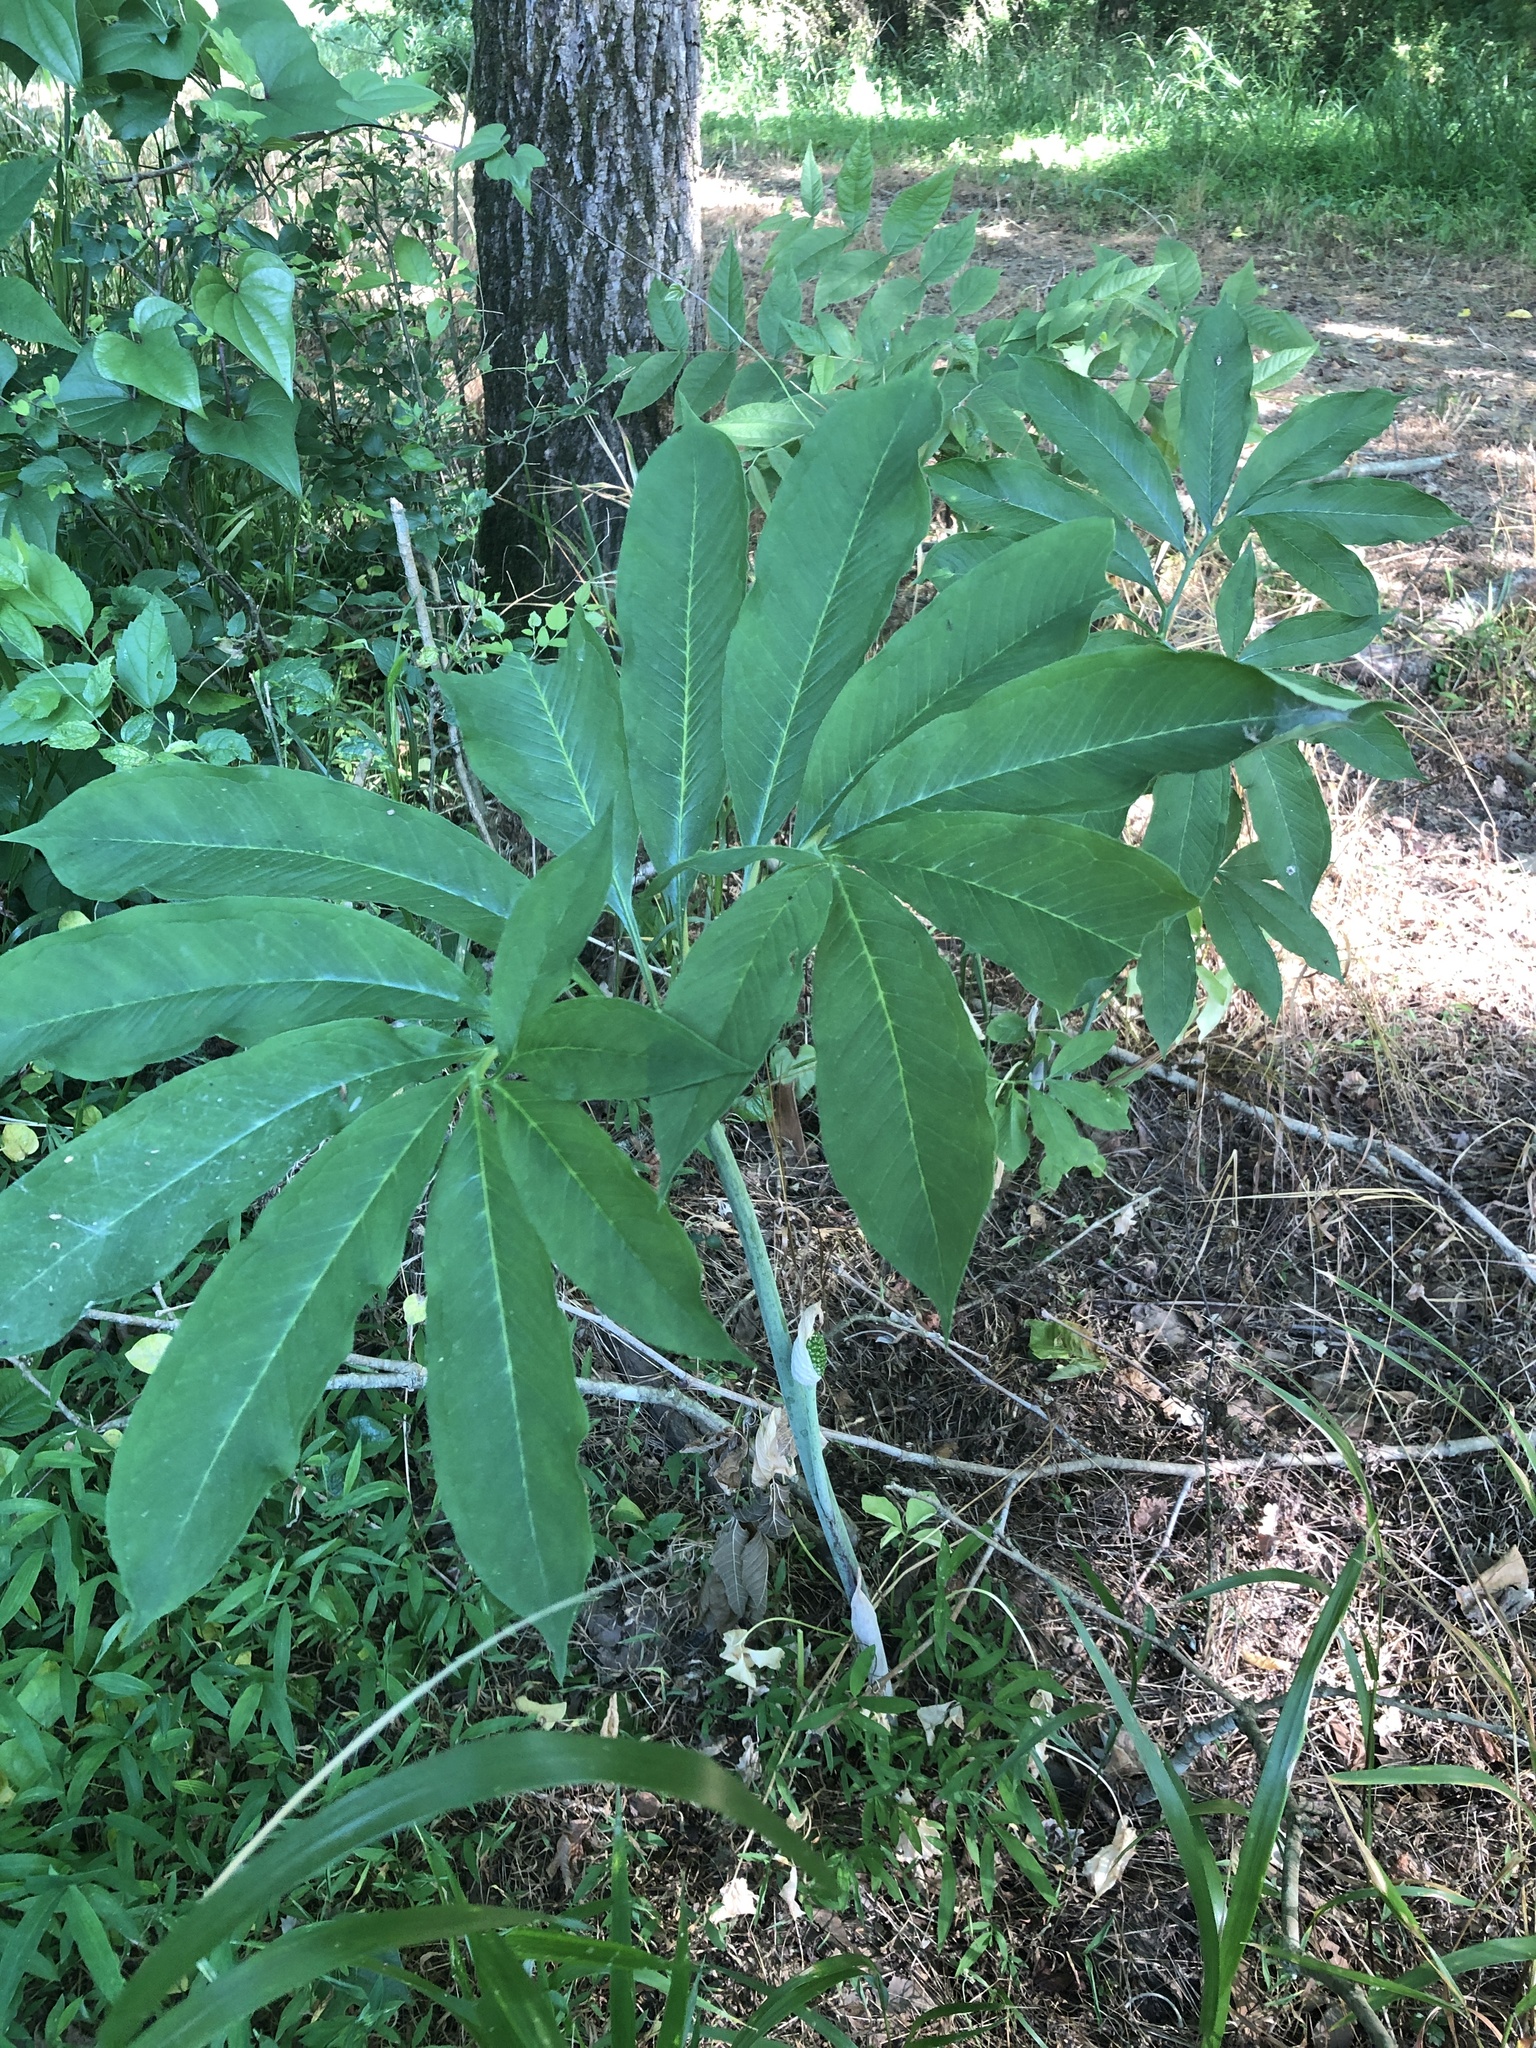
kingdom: Plantae
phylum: Tracheophyta
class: Liliopsida
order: Alismatales
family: Araceae
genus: Arisaema
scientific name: Arisaema dracontium
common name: Dragon-arum
